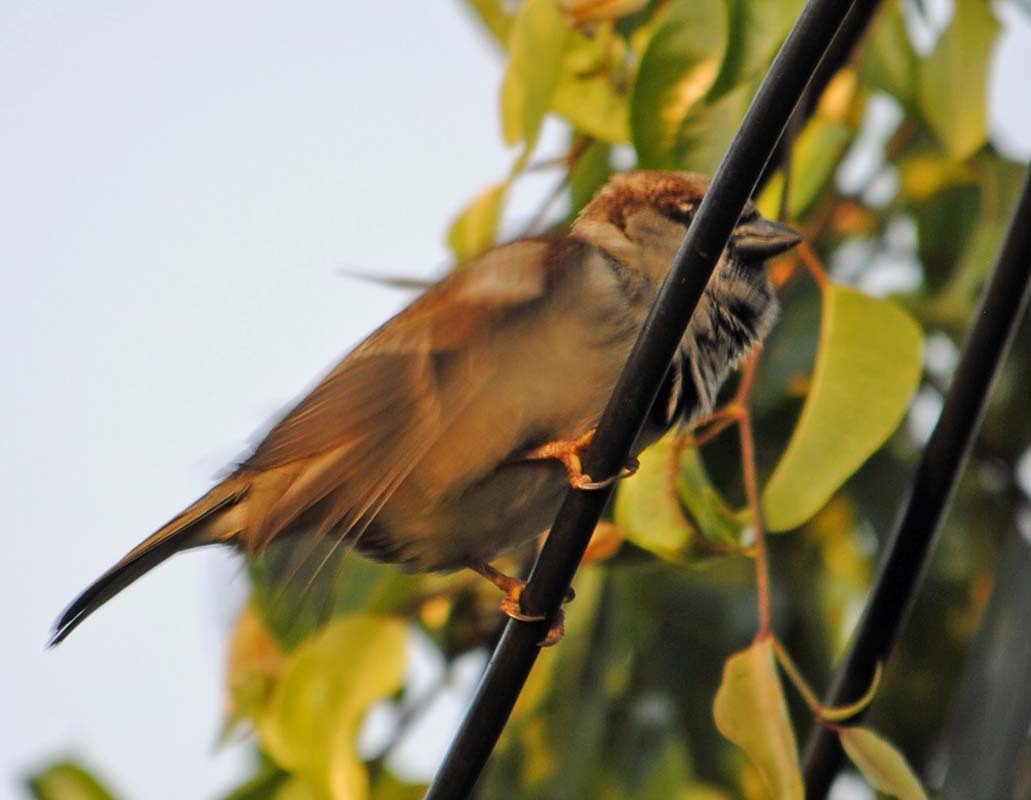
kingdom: Animalia
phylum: Chordata
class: Aves
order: Passeriformes
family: Passeridae
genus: Passer
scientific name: Passer domesticus
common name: House sparrow
